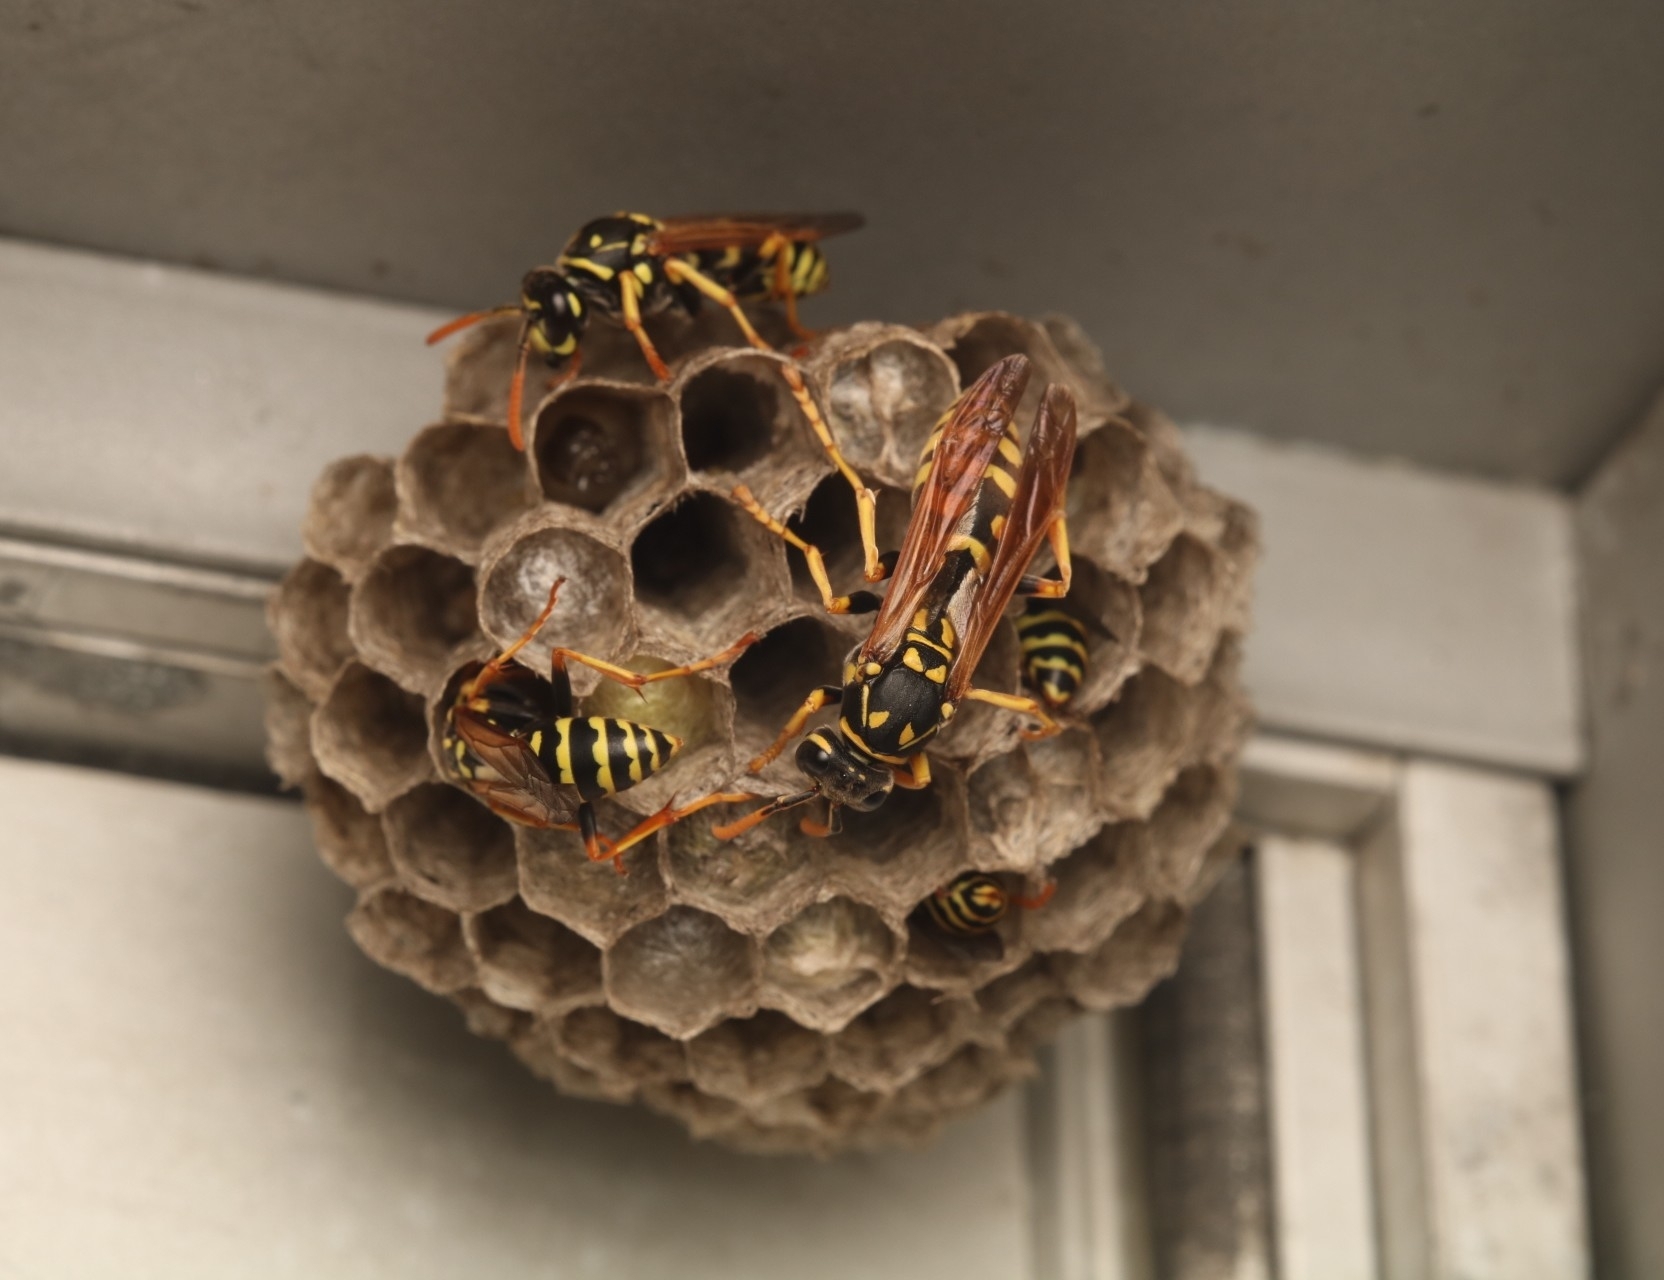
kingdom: Animalia
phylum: Arthropoda
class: Insecta
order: Hymenoptera
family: Eumenidae
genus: Polistes
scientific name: Polistes dominula
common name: Paper wasp
